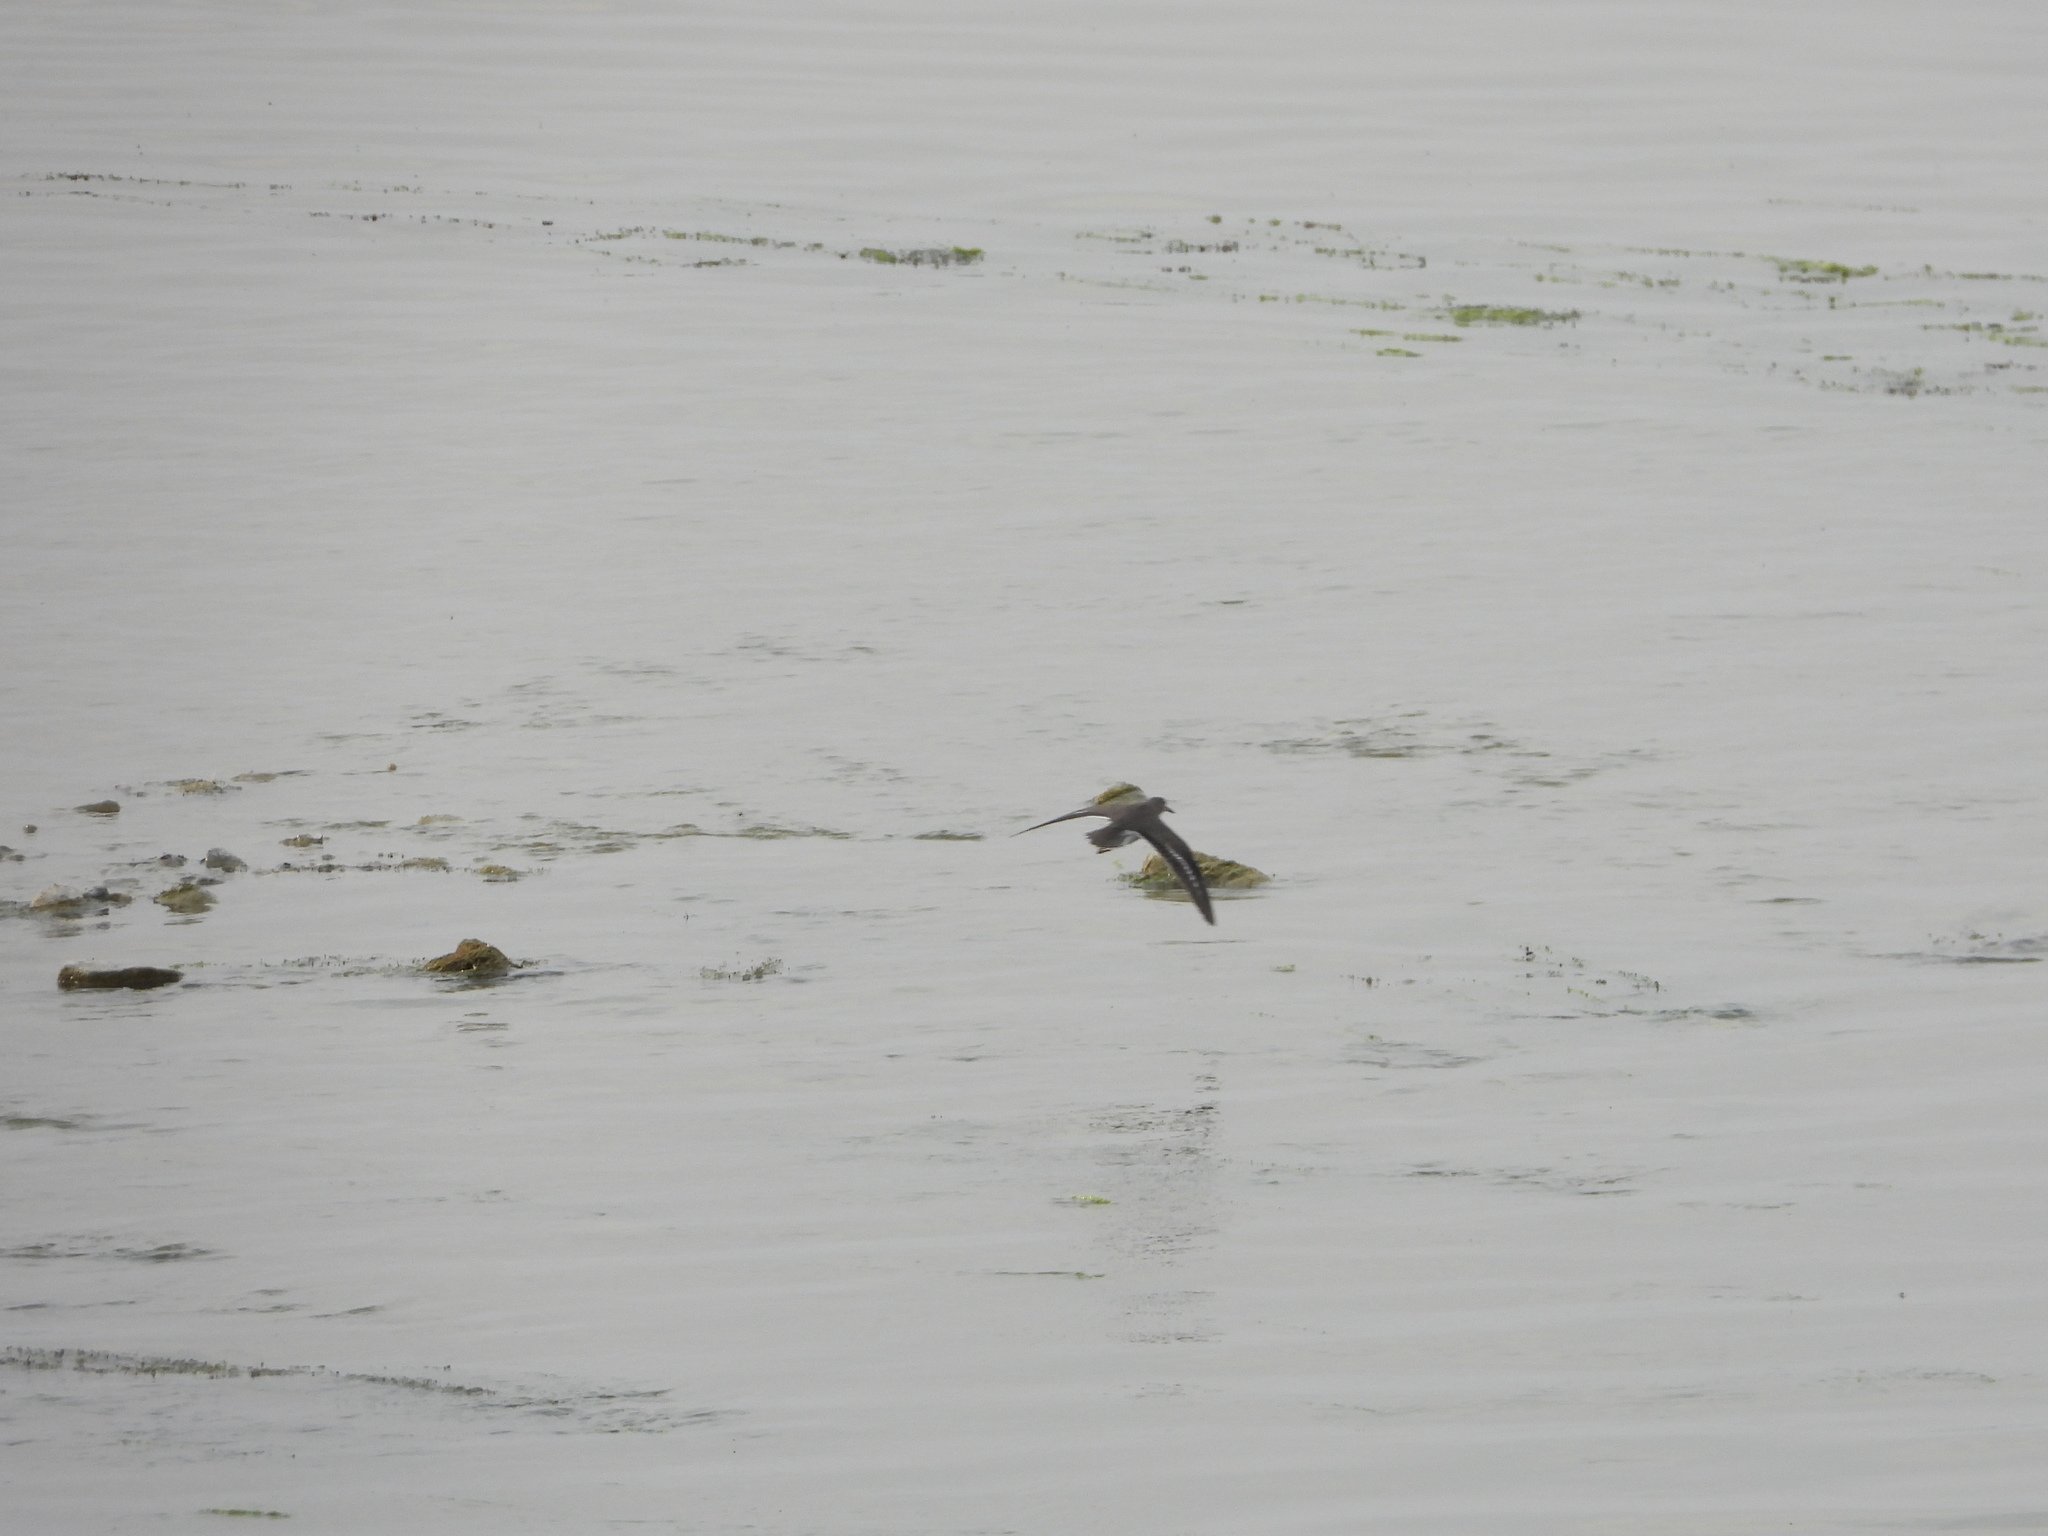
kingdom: Animalia
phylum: Chordata
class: Aves
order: Charadriiformes
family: Scolopacidae
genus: Actitis
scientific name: Actitis macularius
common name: Spotted sandpiper
